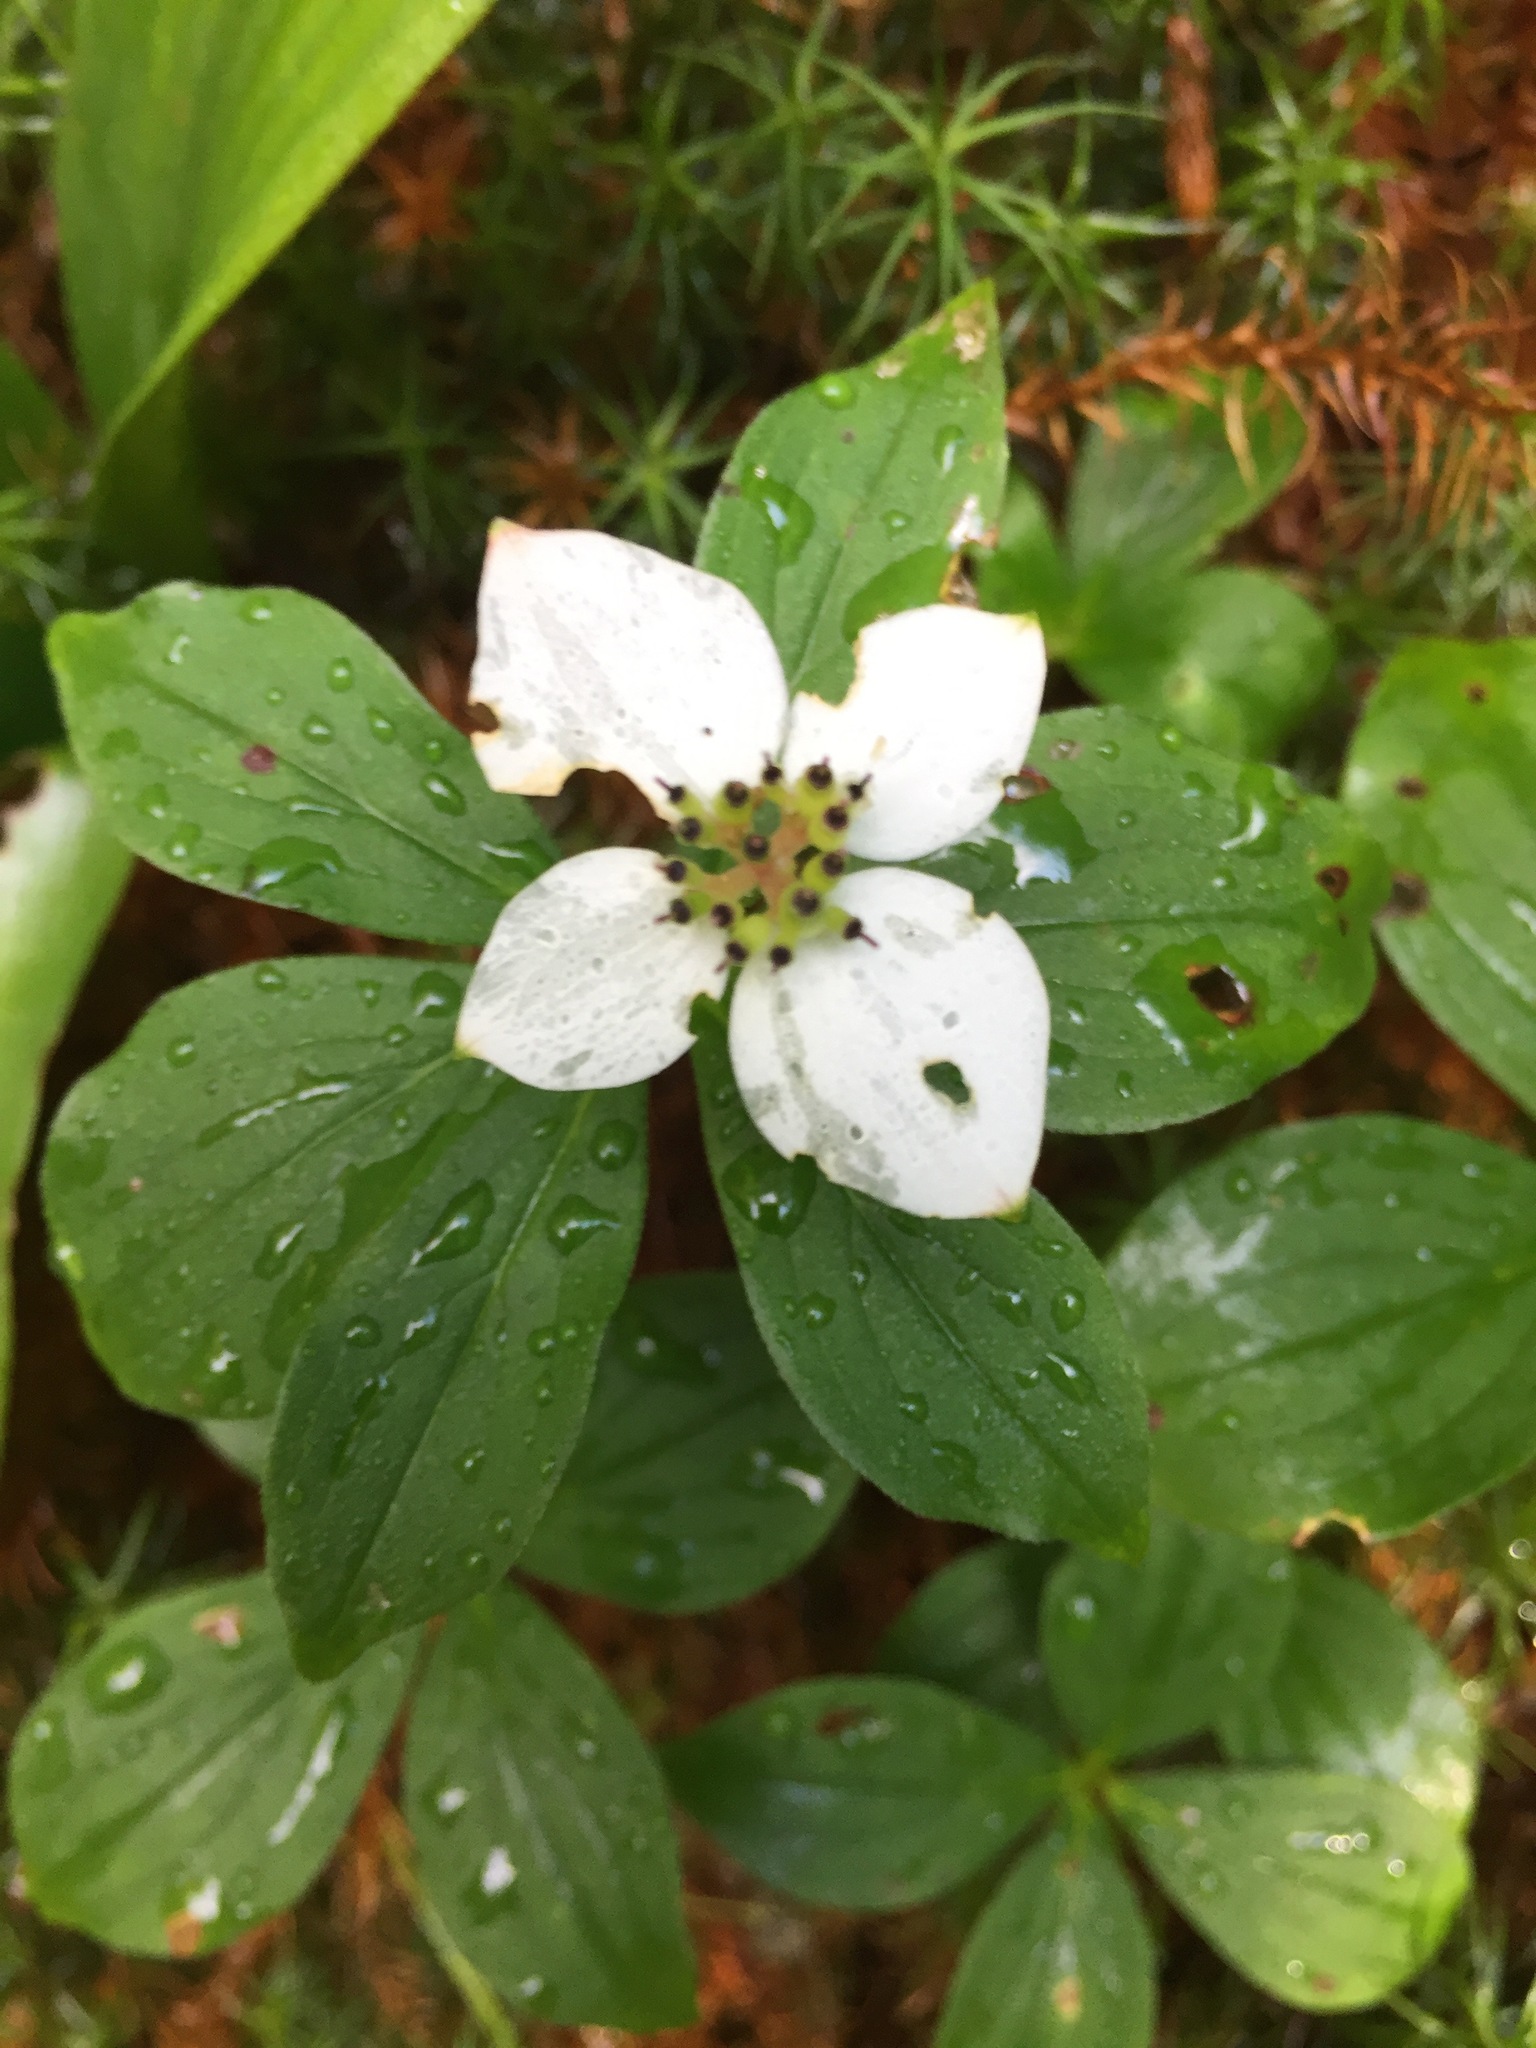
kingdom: Plantae
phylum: Tracheophyta
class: Magnoliopsida
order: Cornales
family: Cornaceae
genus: Cornus
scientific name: Cornus canadensis
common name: Creeping dogwood
